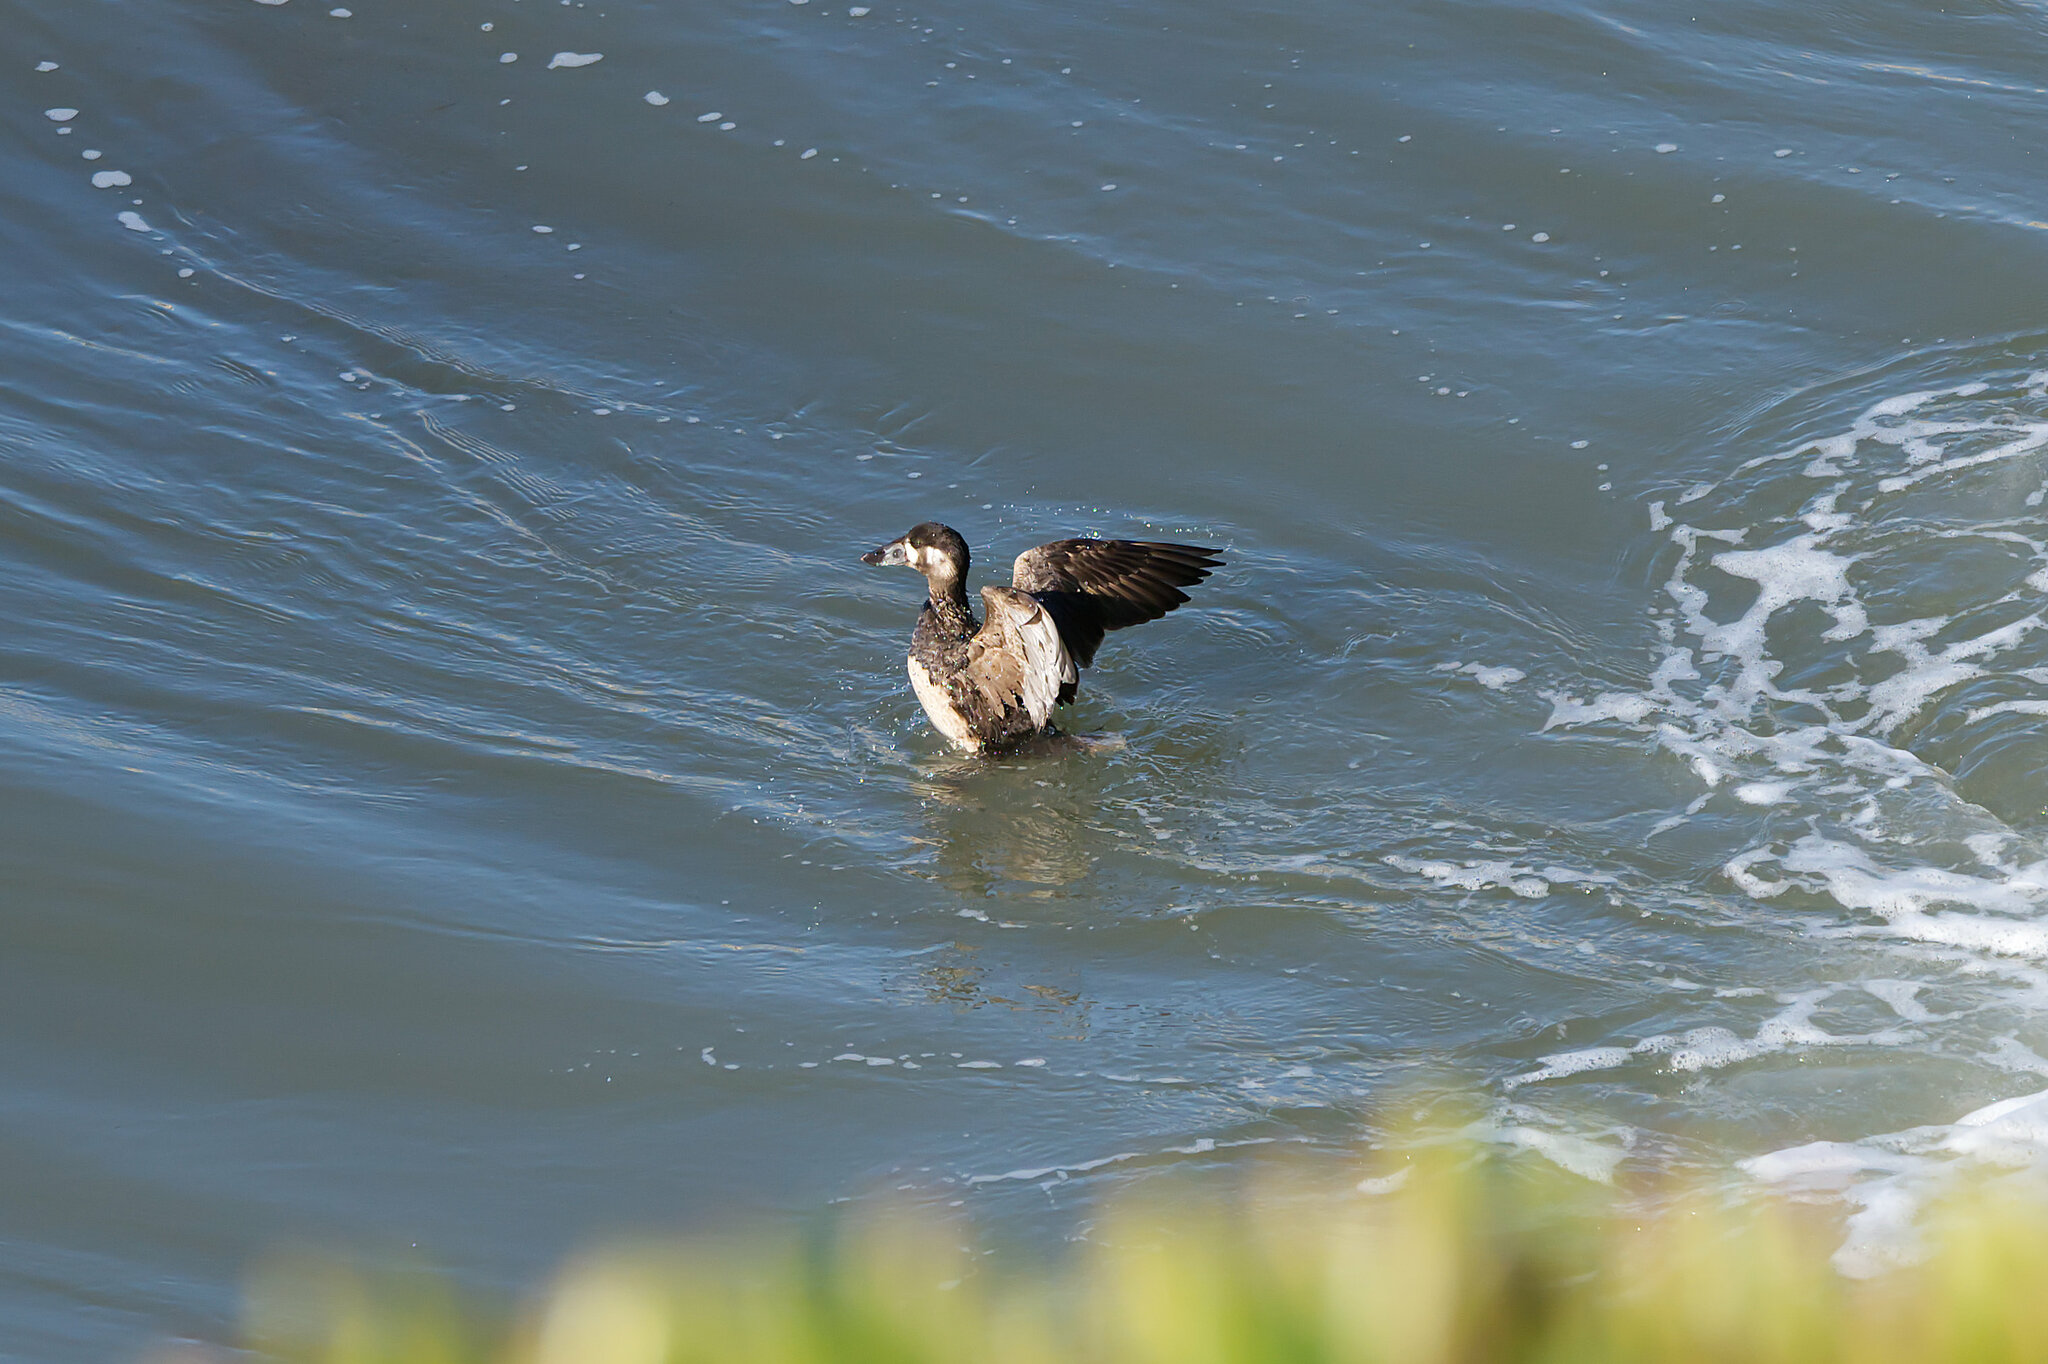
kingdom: Animalia
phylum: Chordata
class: Aves
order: Anseriformes
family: Anatidae
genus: Melanitta
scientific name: Melanitta perspicillata
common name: Surf scoter
